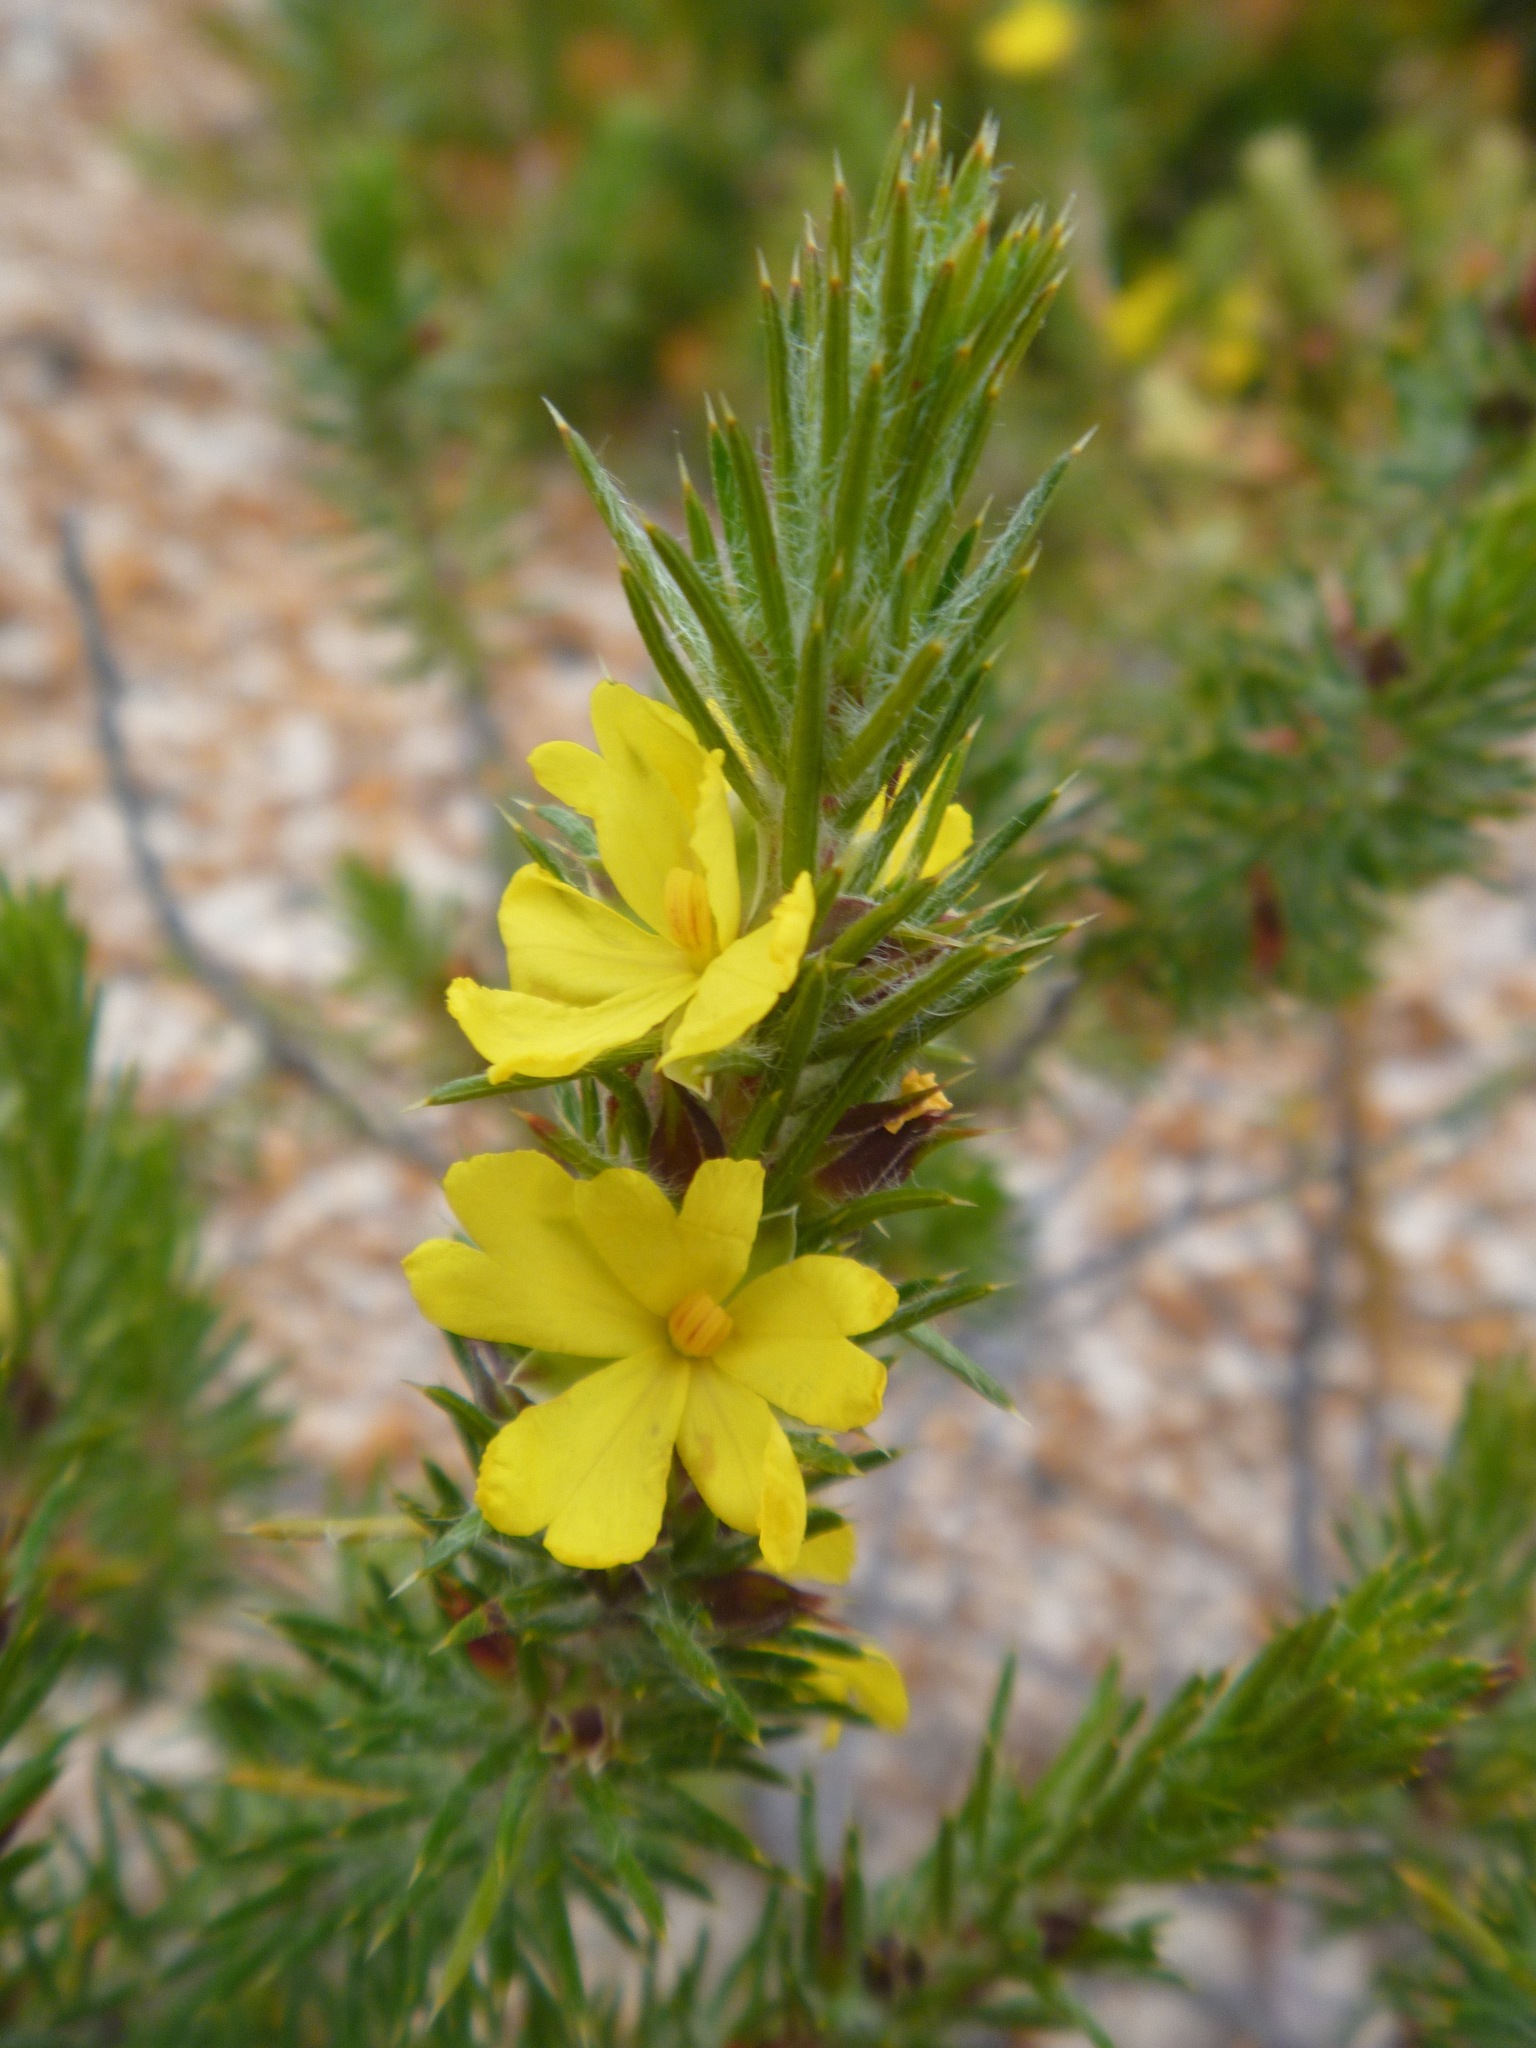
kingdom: Plantae
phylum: Tracheophyta
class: Magnoliopsida
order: Dilleniales
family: Dilleniaceae
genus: Hibbertia
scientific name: Hibbertia mucronata
